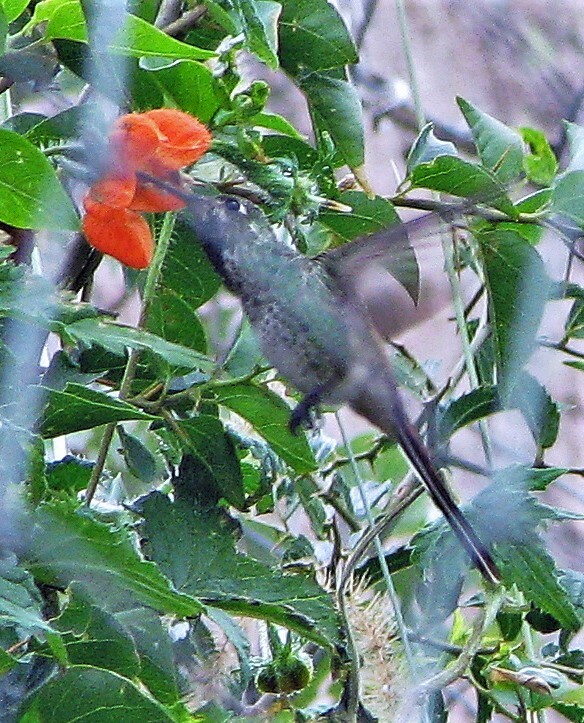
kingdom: Animalia
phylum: Chordata
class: Aves
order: Apodiformes
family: Trochilidae
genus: Sappho
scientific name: Sappho sparganurus
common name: Red-tailed comet
